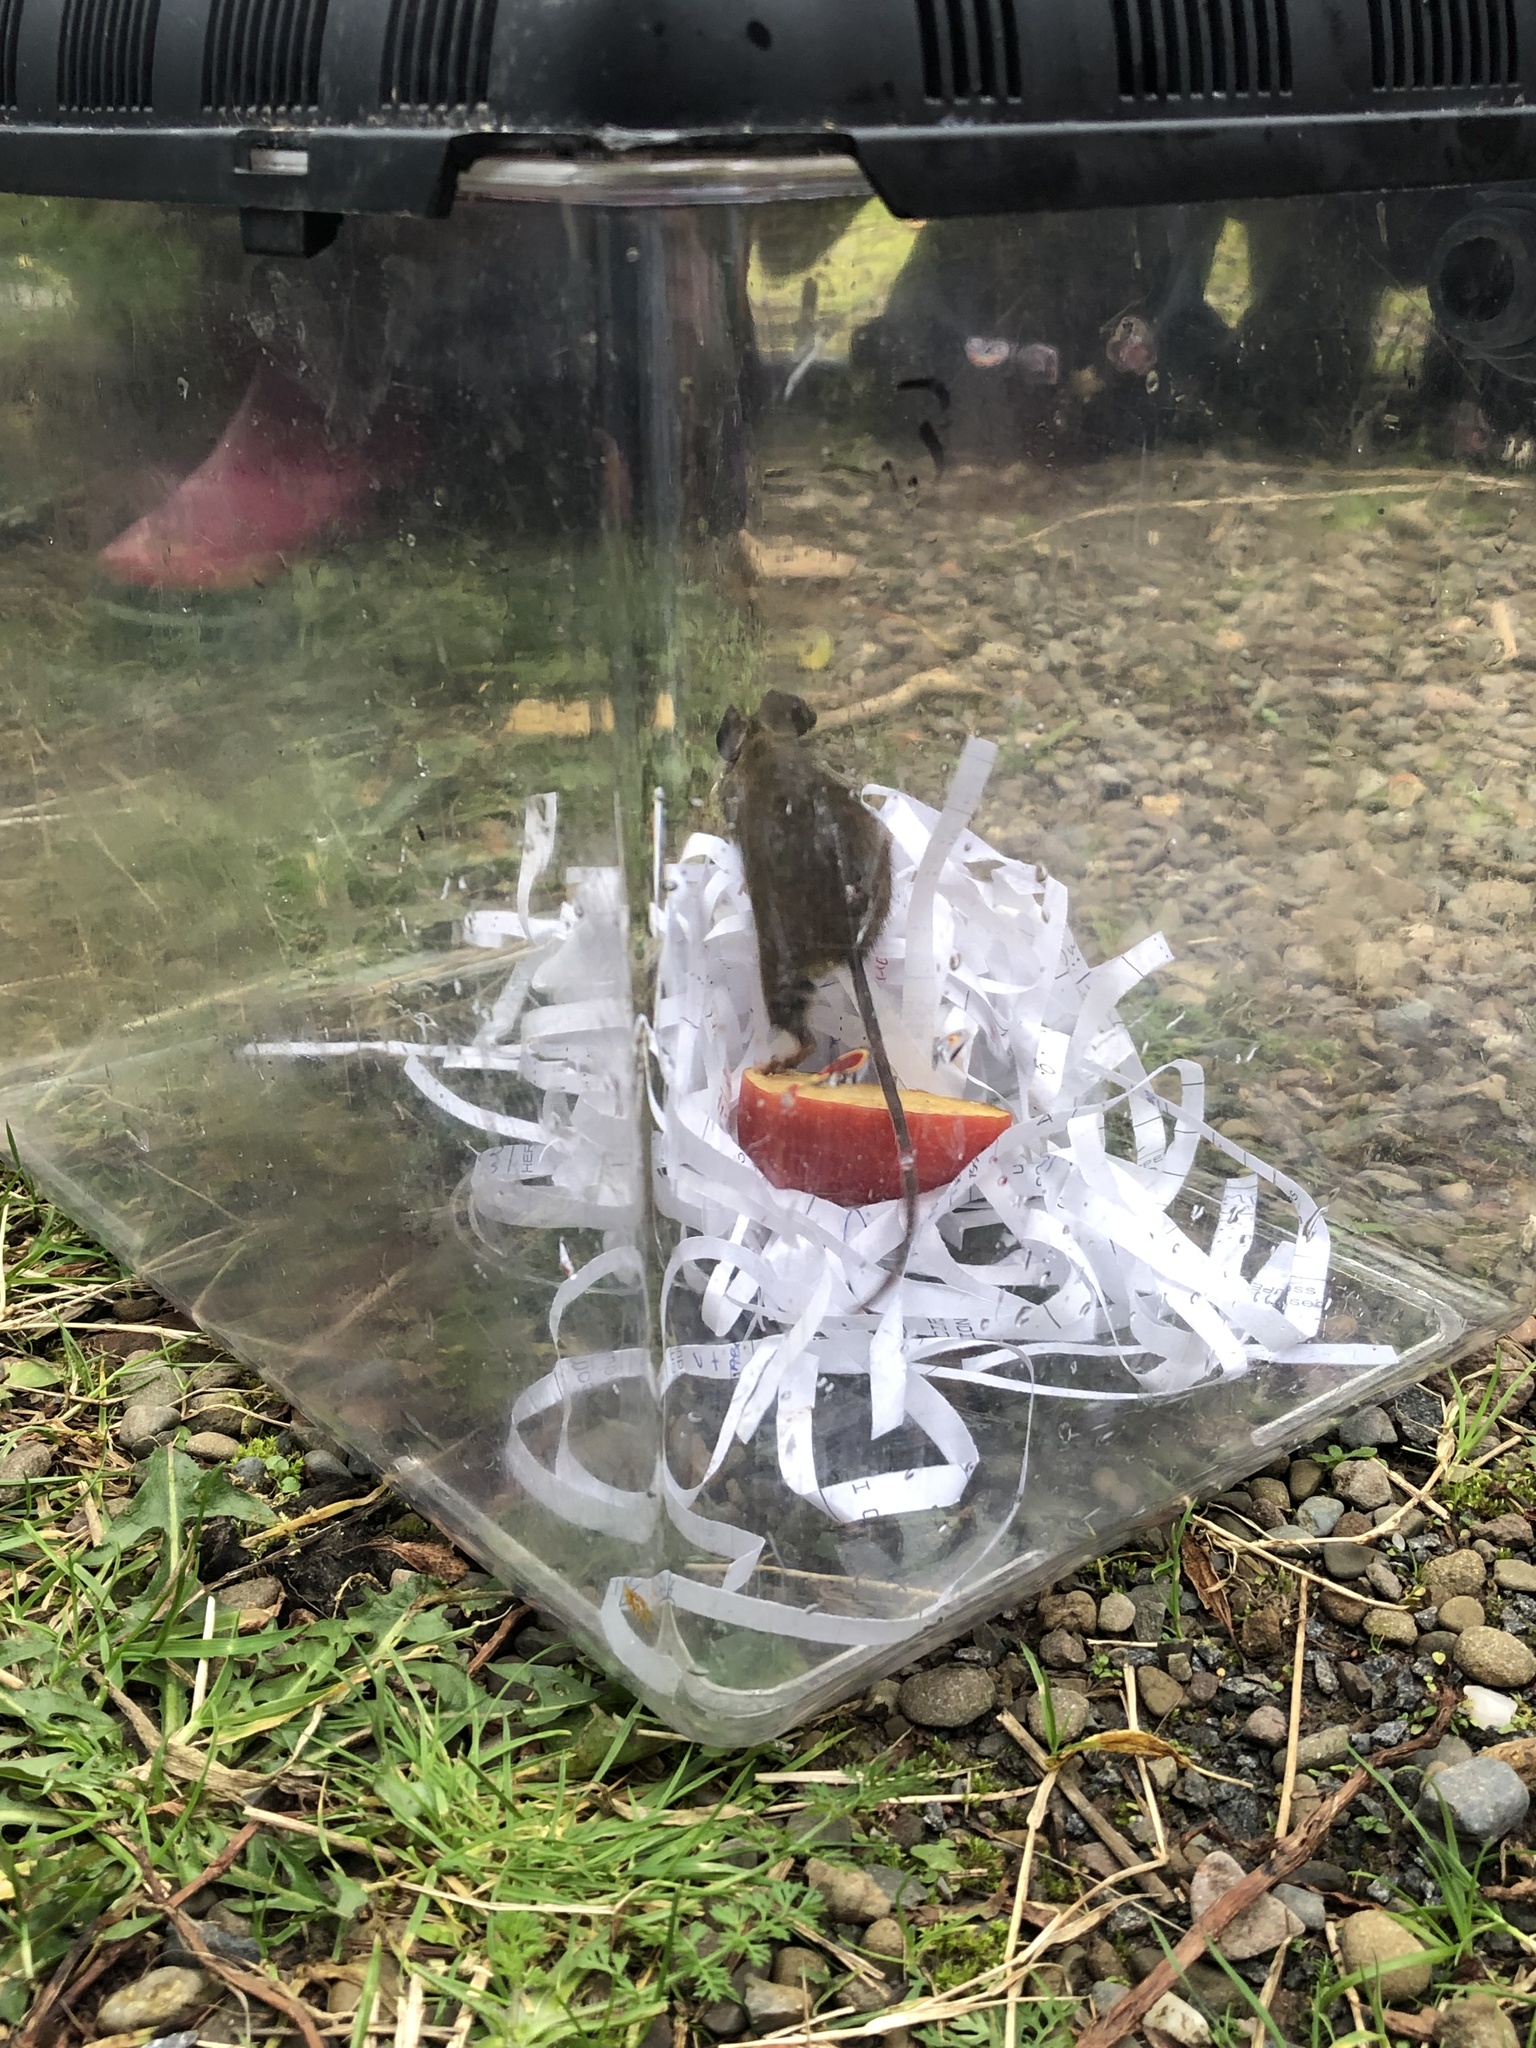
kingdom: Animalia
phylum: Chordata
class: Mammalia
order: Rodentia
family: Muridae
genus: Apodemus
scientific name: Apodemus sylvaticus
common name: Wood mouse
